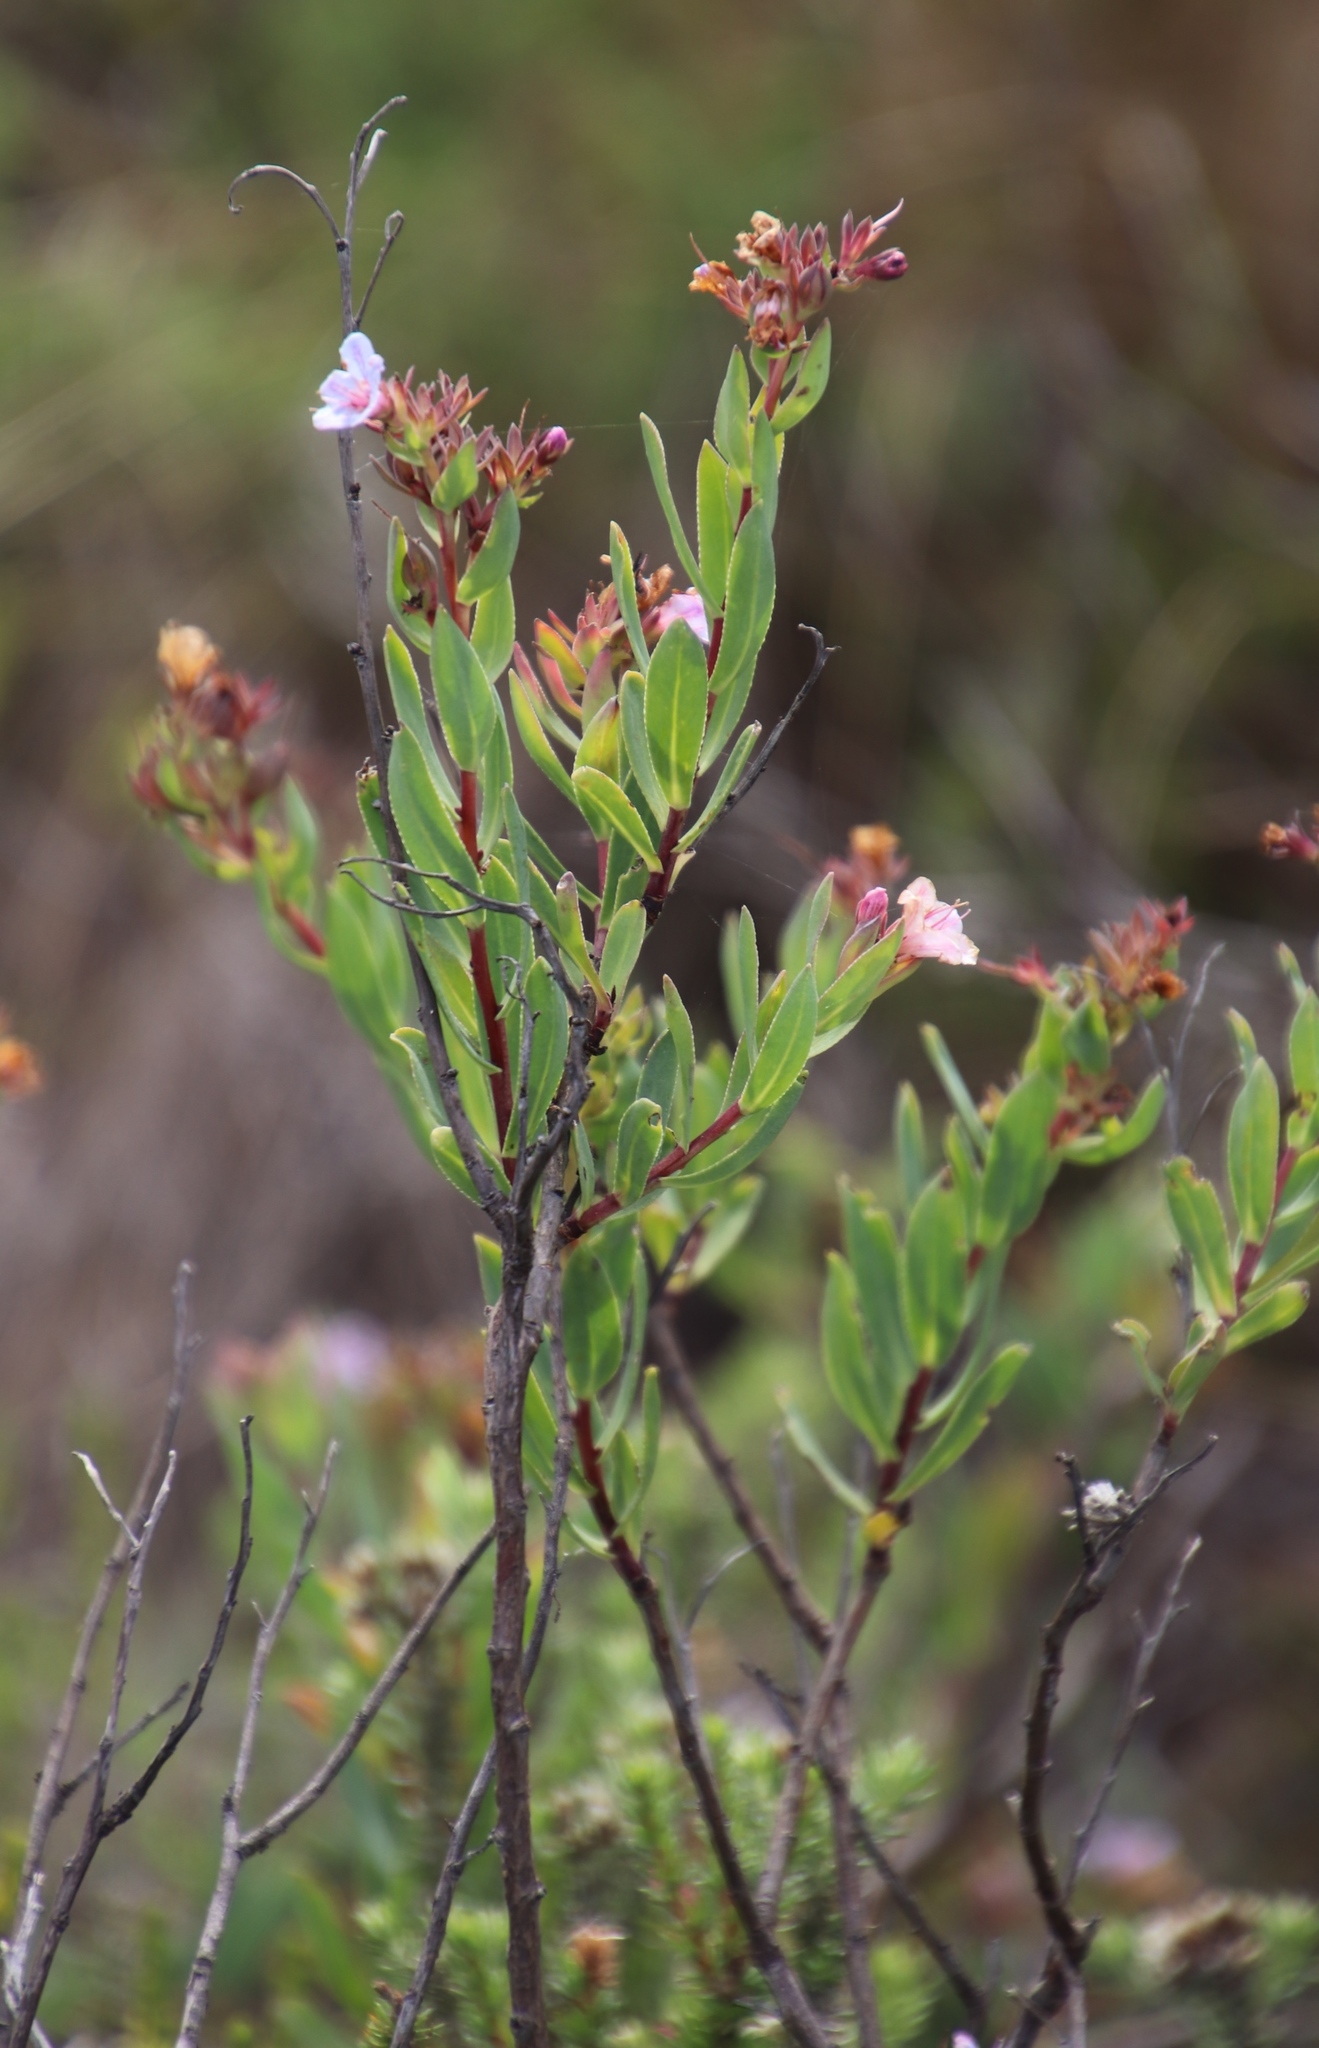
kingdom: Plantae
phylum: Tracheophyta
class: Magnoliopsida
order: Boraginales
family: Boraginaceae
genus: Lobostemon
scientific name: Lobostemon glaucophyllus
